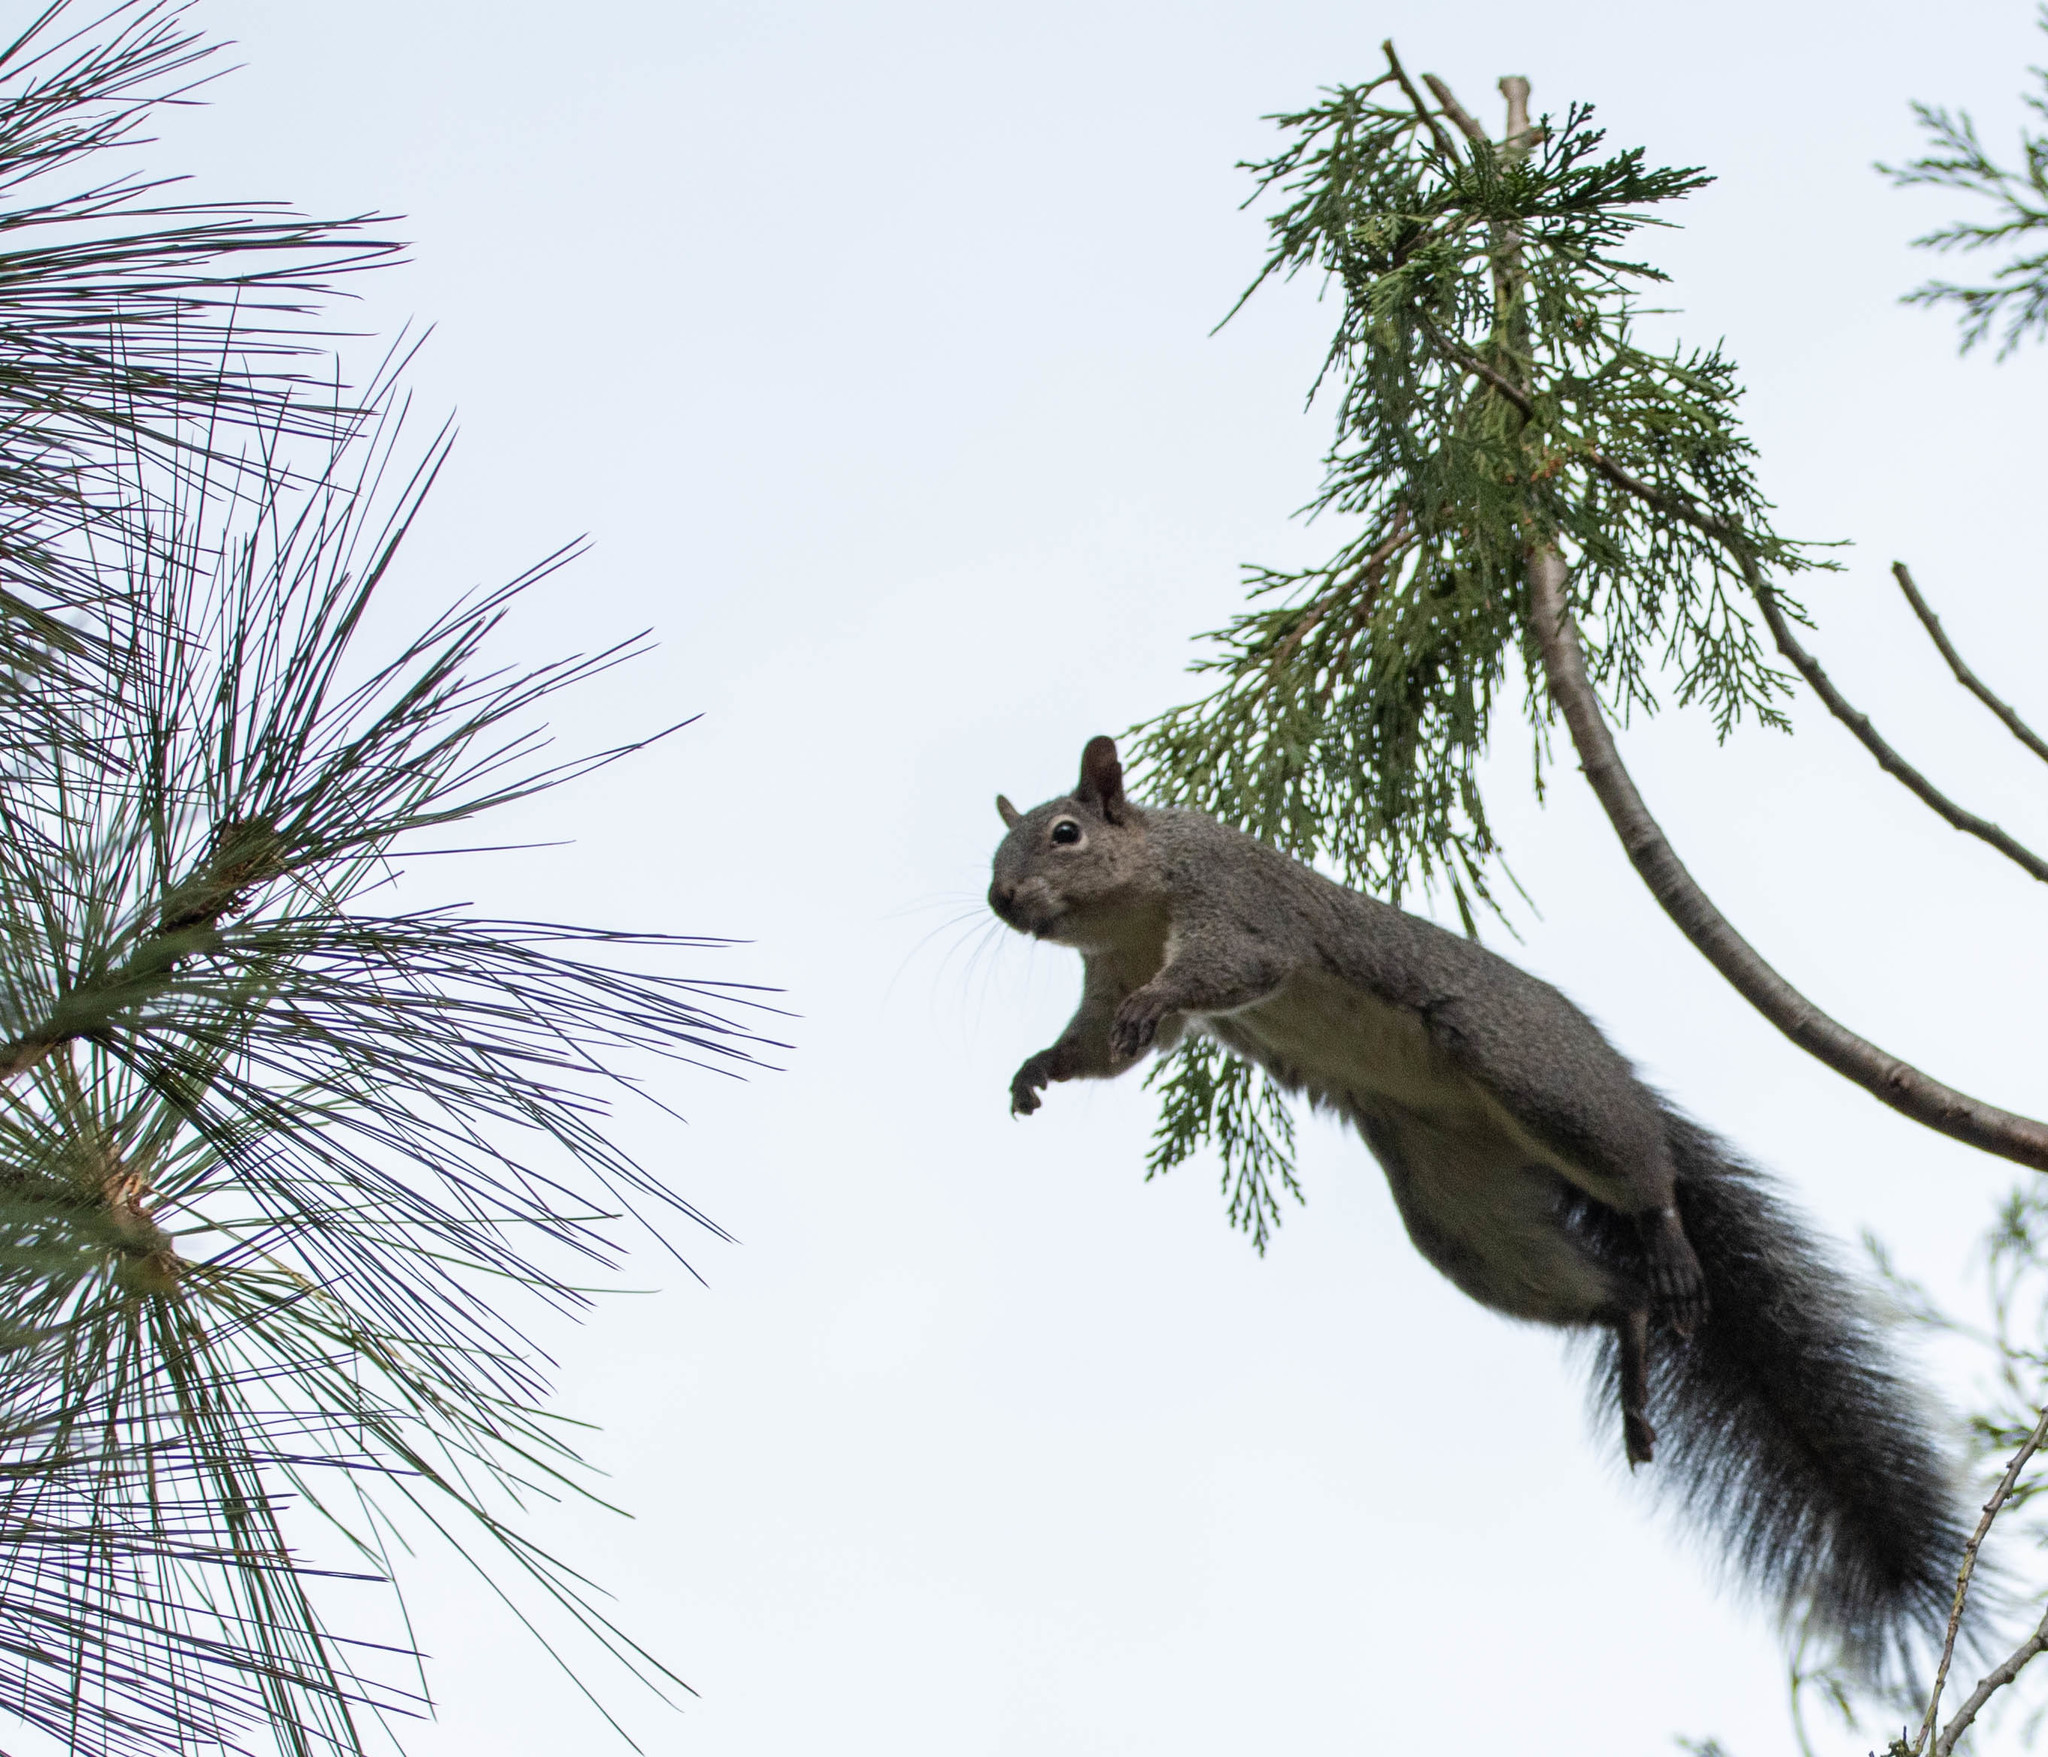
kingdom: Animalia
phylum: Chordata
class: Mammalia
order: Rodentia
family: Sciuridae
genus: Sciurus
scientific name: Sciurus griseus
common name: Western gray squirrel
